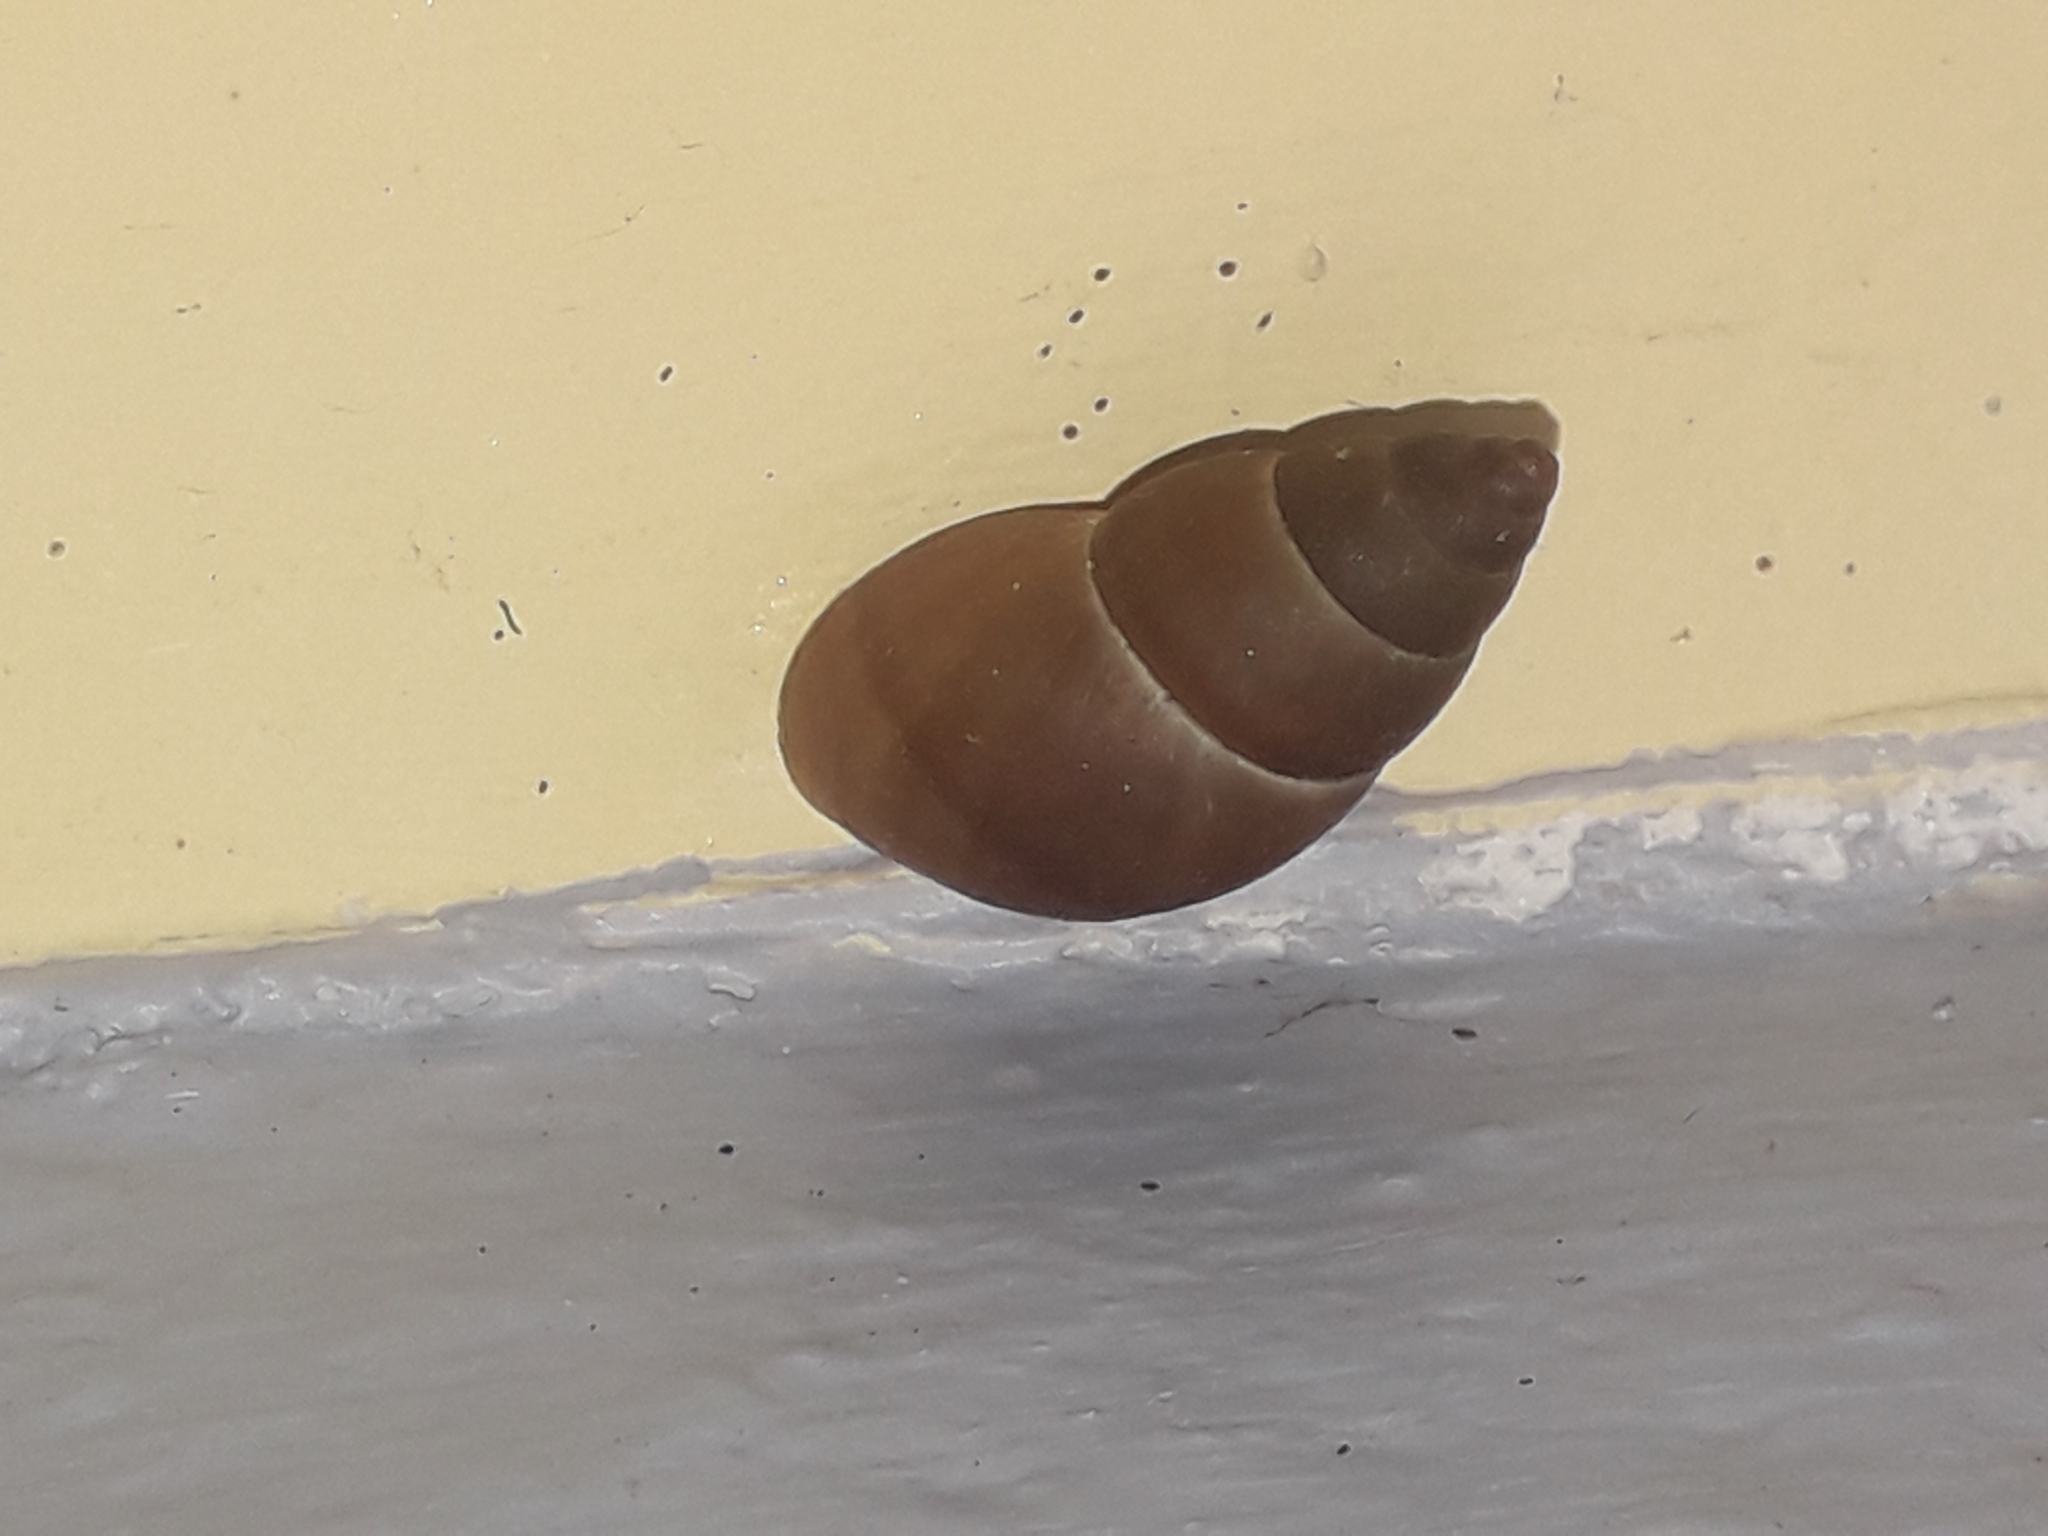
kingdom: Animalia
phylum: Mollusca
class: Gastropoda
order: Stylommatophora
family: Bulimulidae
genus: Bulimulus
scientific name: Bulimulus guadalupensis
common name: West indian bulimulus
